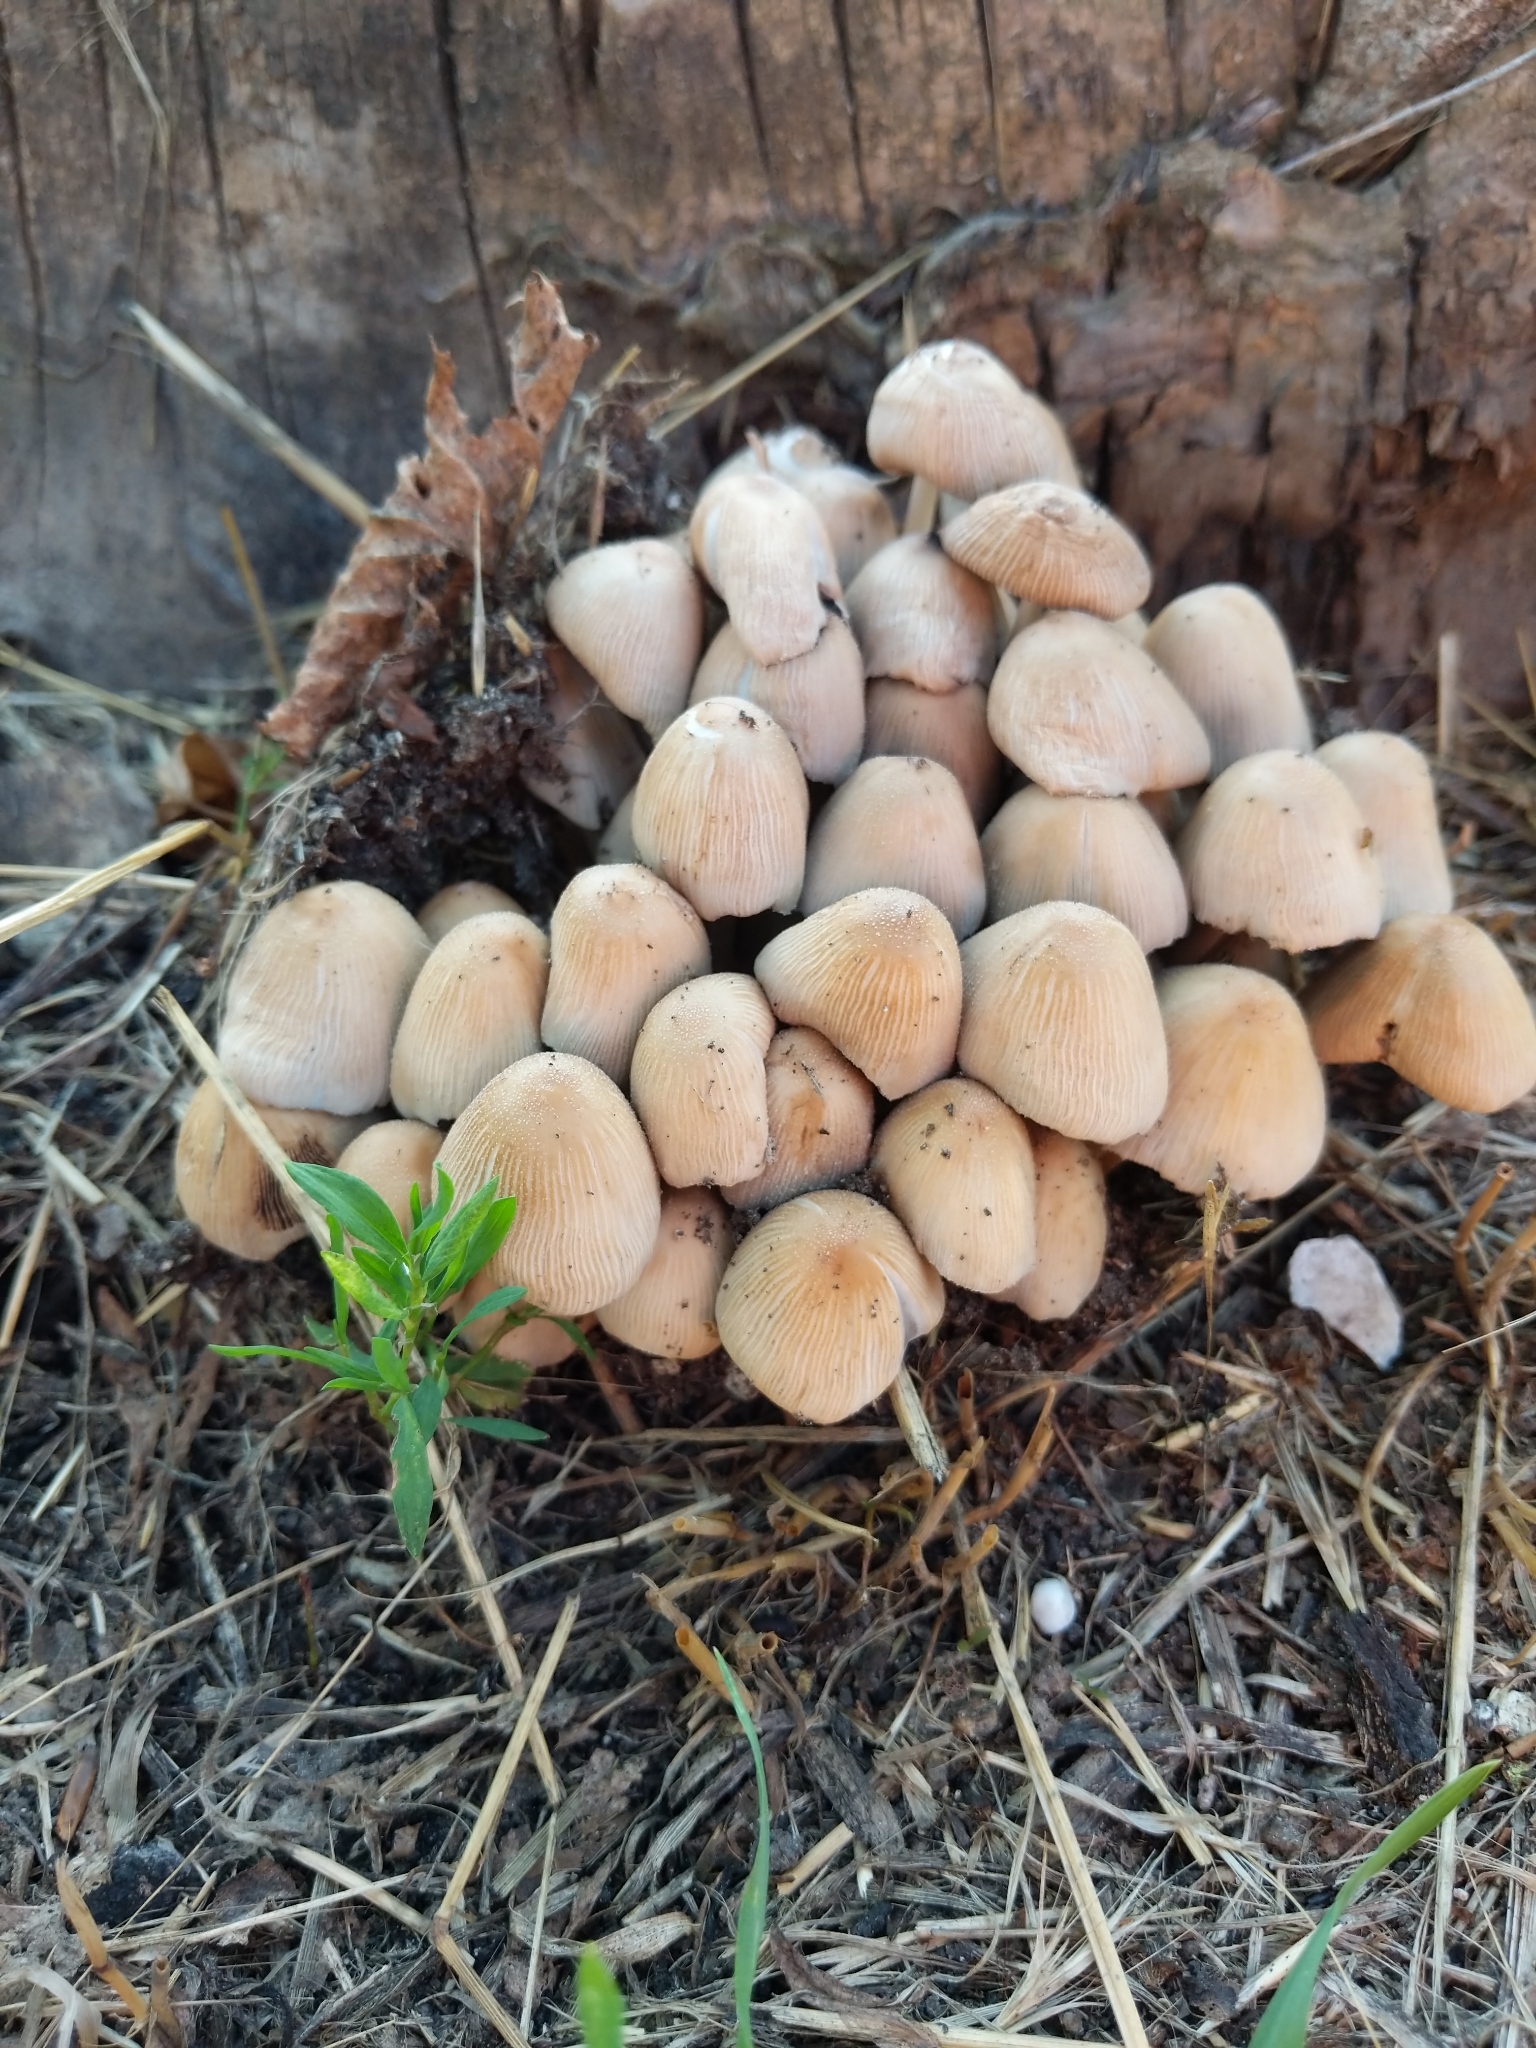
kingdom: Fungi
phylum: Basidiomycota
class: Agaricomycetes
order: Agaricales
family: Psathyrellaceae
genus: Coprinellus
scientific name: Coprinellus micaceus
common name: Glistening ink-cap
